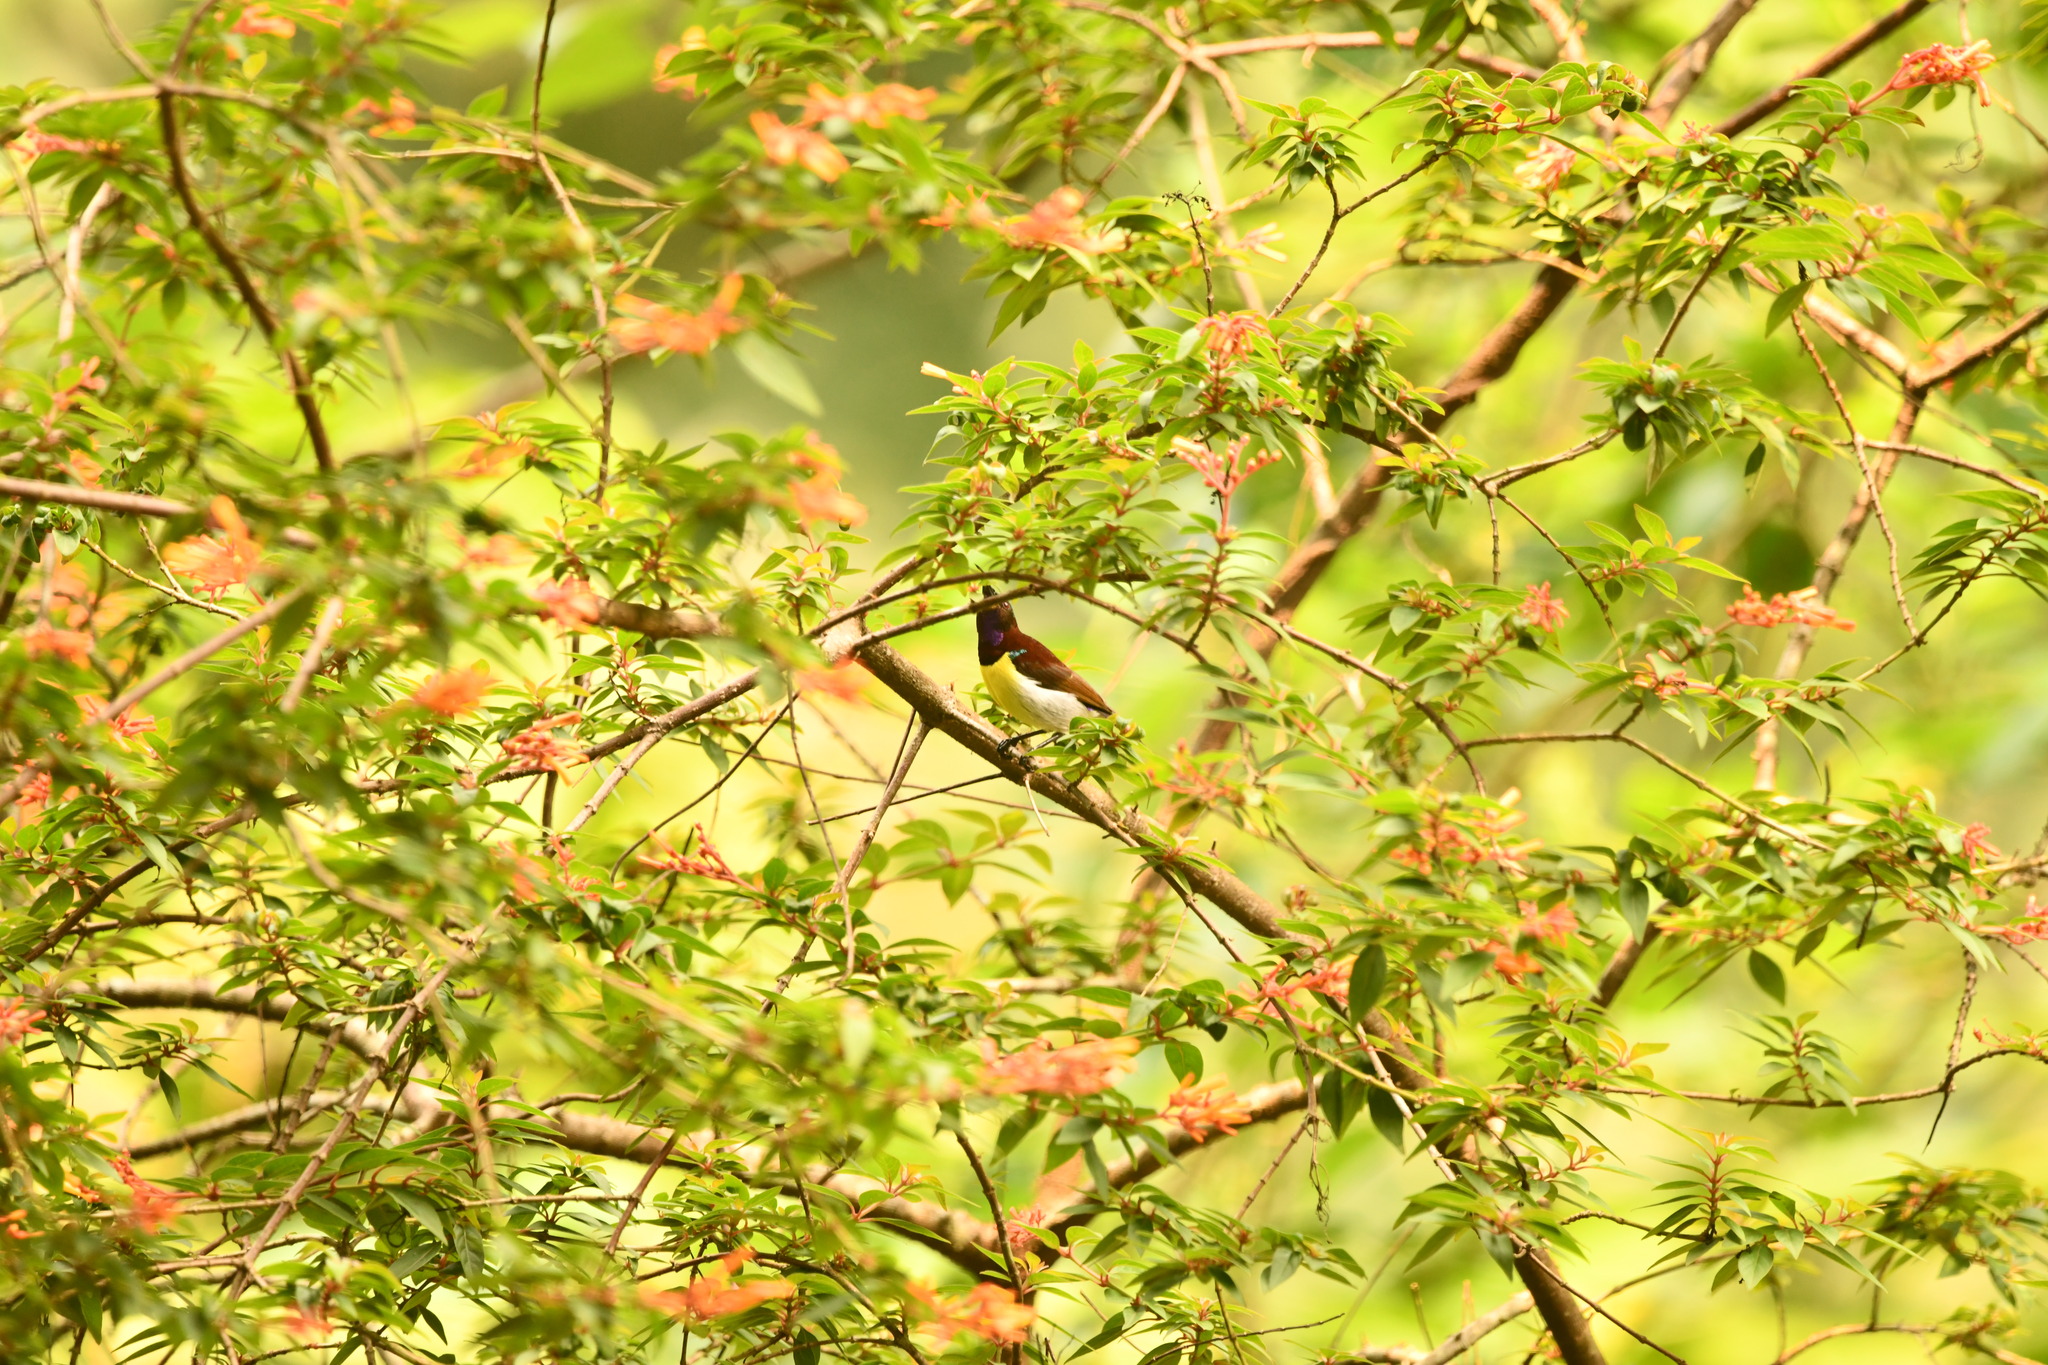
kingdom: Animalia
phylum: Chordata
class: Aves
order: Passeriformes
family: Nectariniidae
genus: Leptocoma
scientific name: Leptocoma zeylonica
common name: Purple-rumped sunbird
